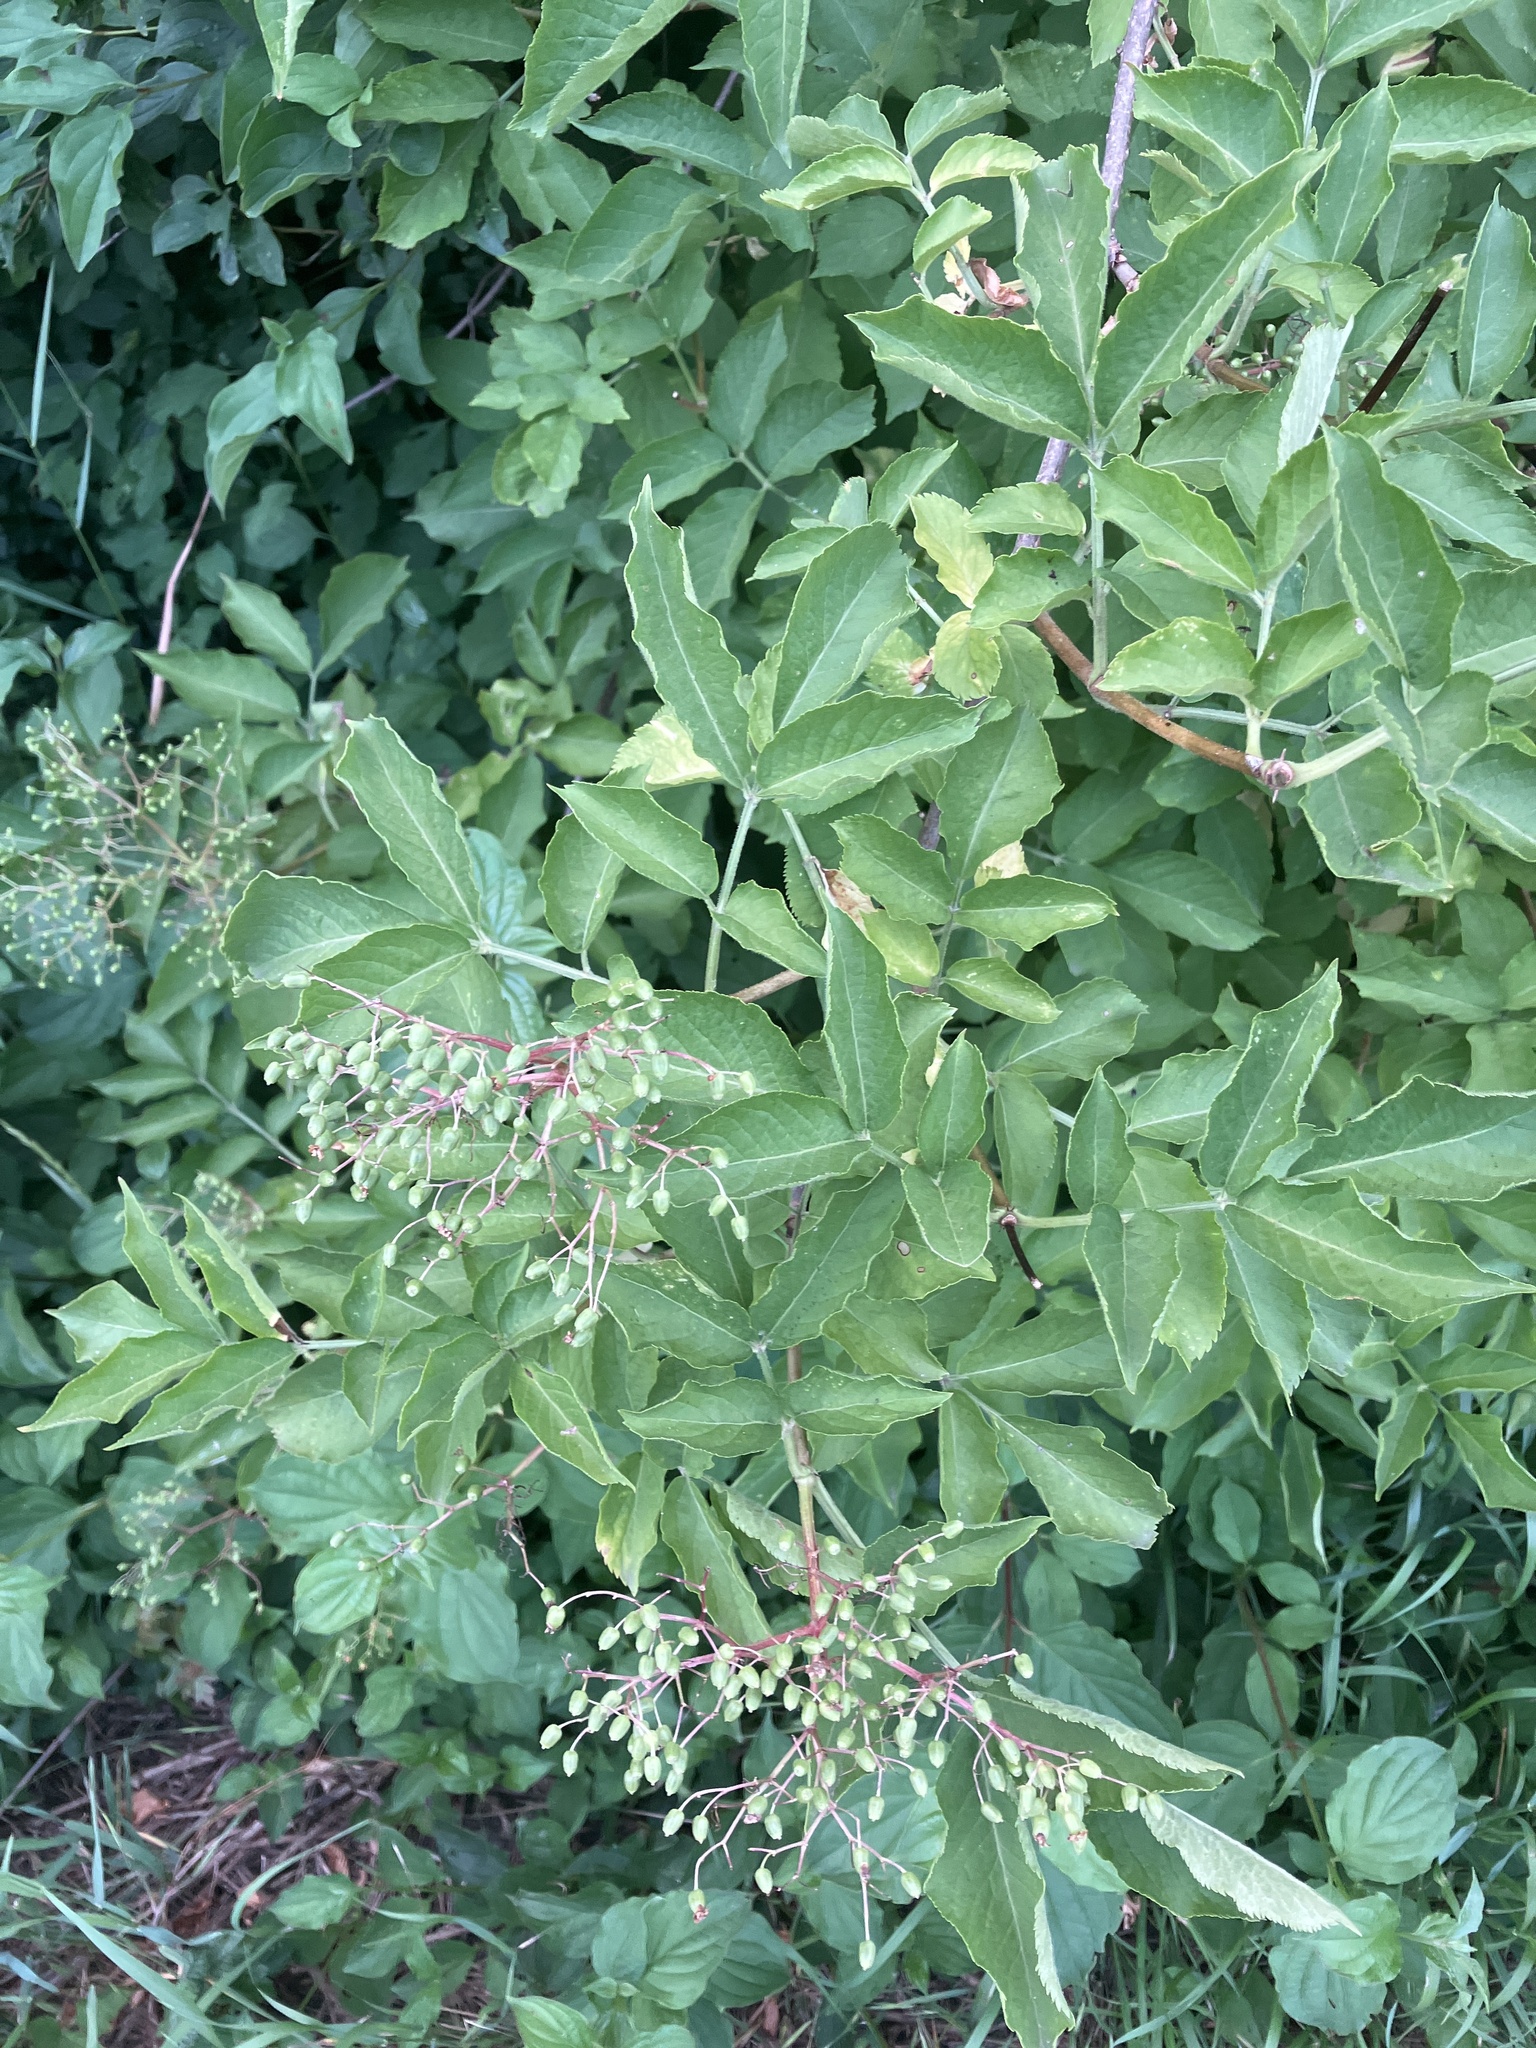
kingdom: Plantae
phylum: Tracheophyta
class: Magnoliopsida
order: Dipsacales
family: Viburnaceae
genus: Sambucus
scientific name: Sambucus nigra
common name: Elder
